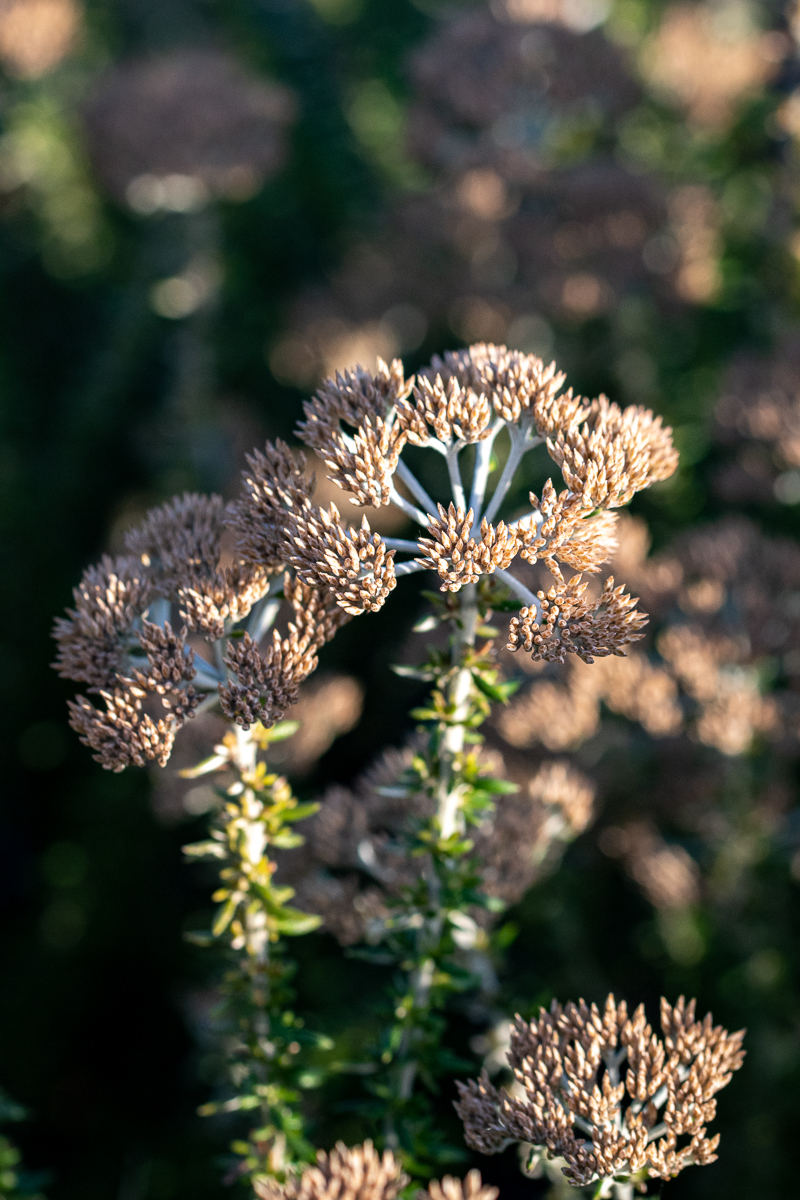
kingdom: Plantae
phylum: Tracheophyta
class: Magnoliopsida
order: Asterales
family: Asteraceae
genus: Metalasia
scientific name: Metalasia muricata
